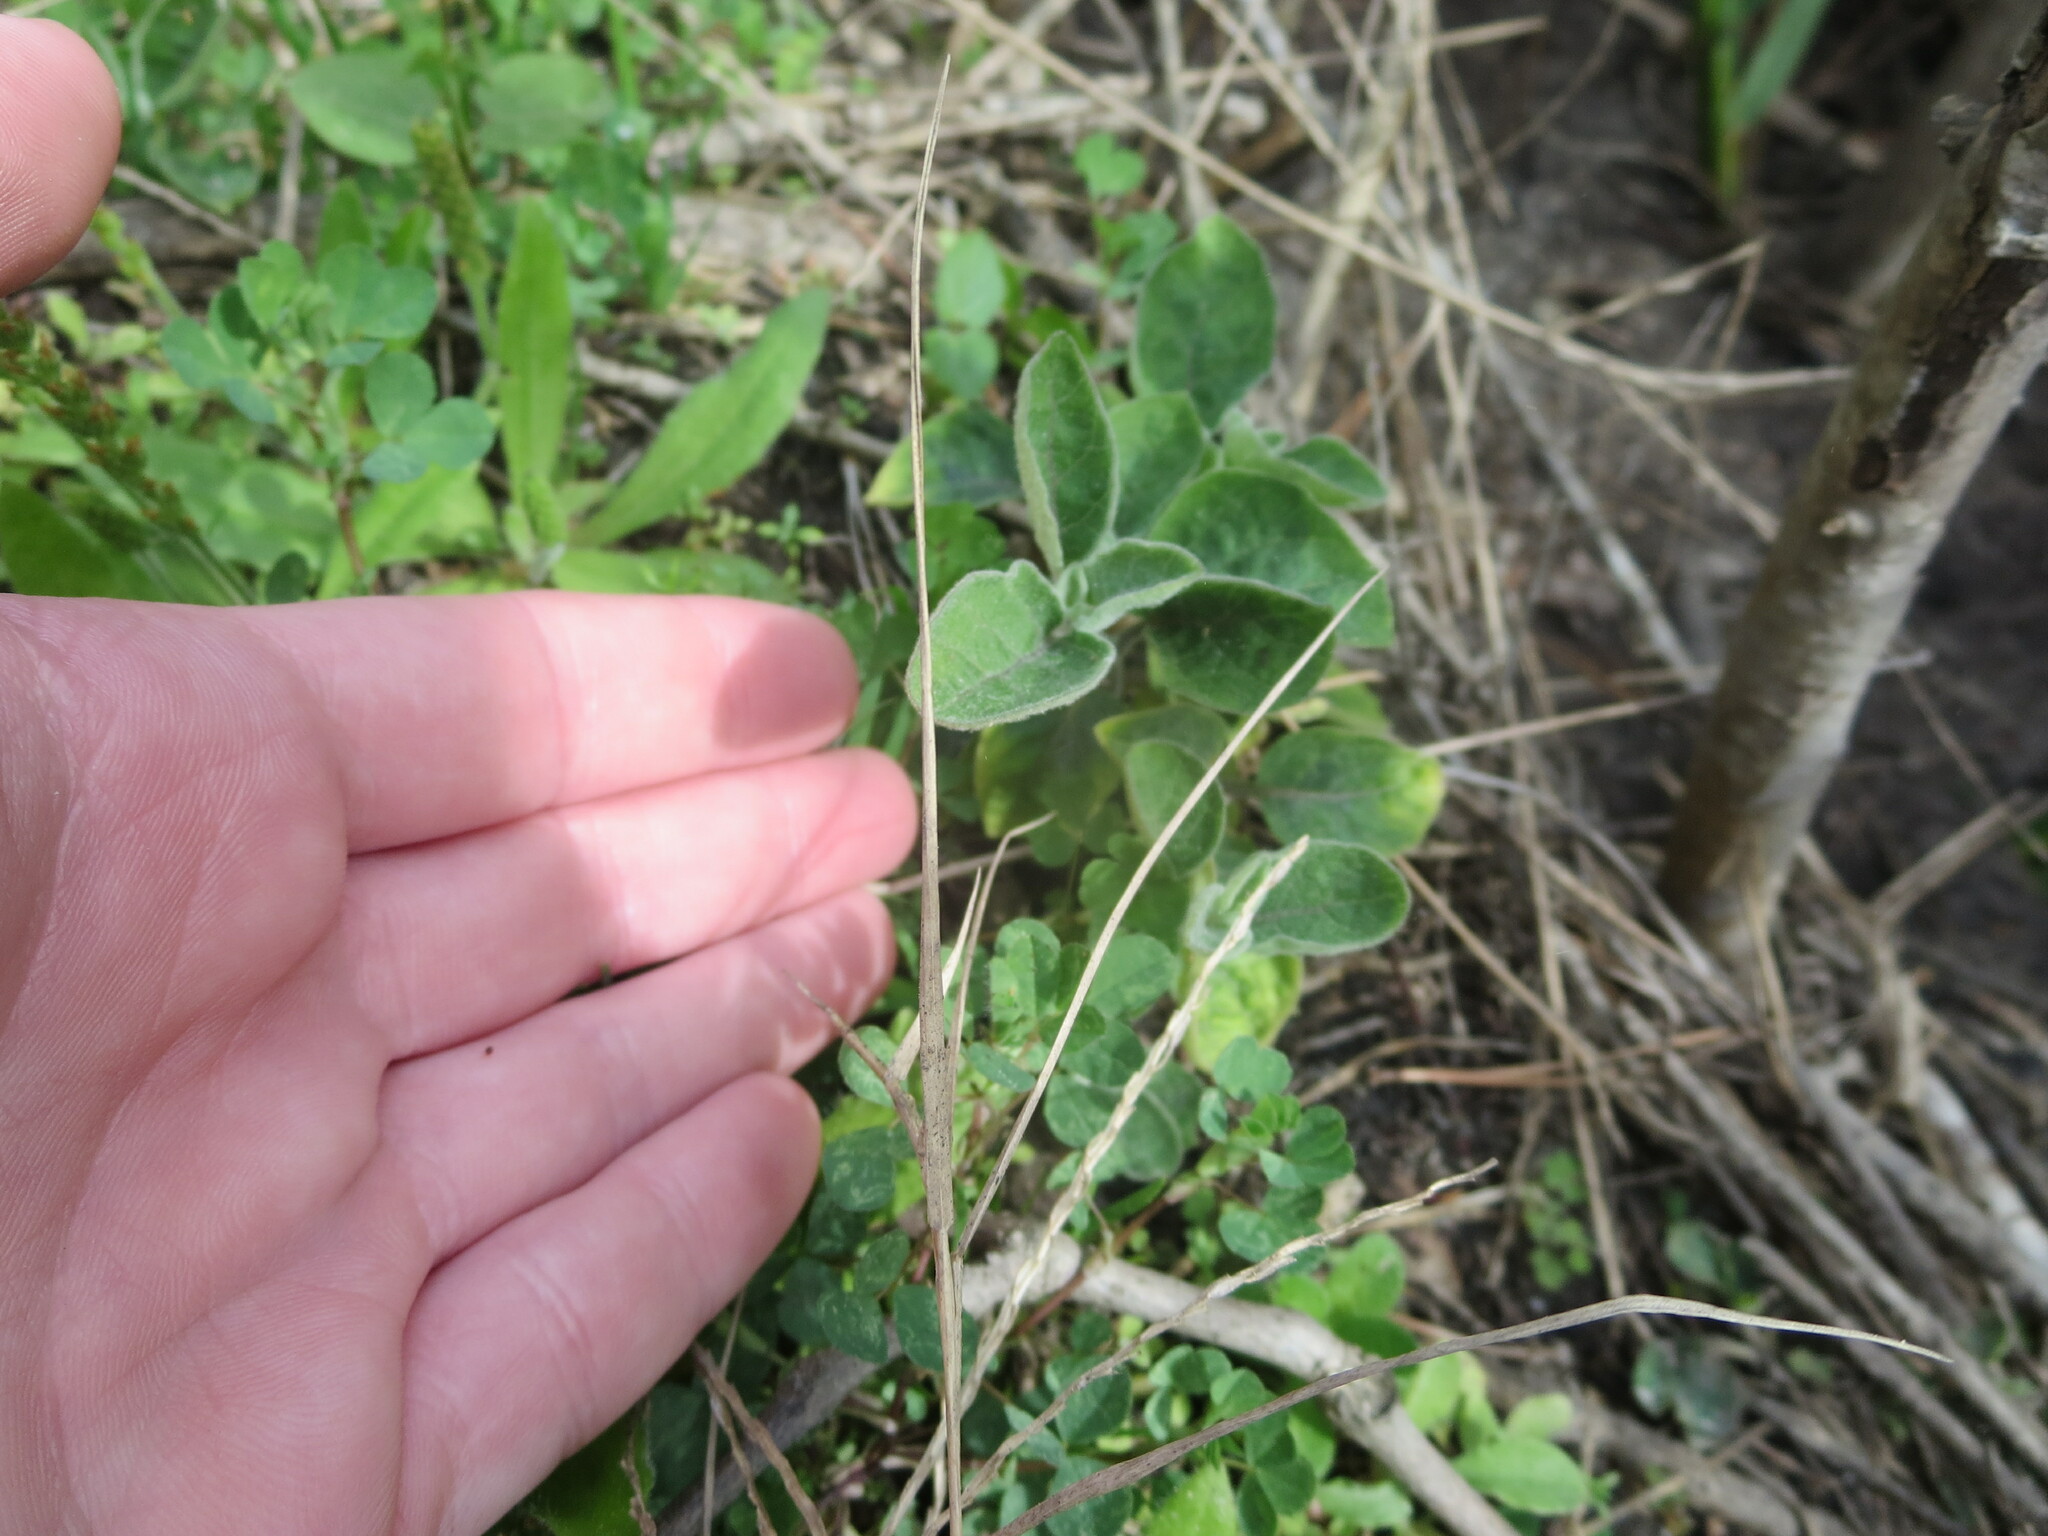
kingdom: Plantae
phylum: Tracheophyta
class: Magnoliopsida
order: Solanales
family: Solanaceae
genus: Physalis
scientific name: Physalis walteri
